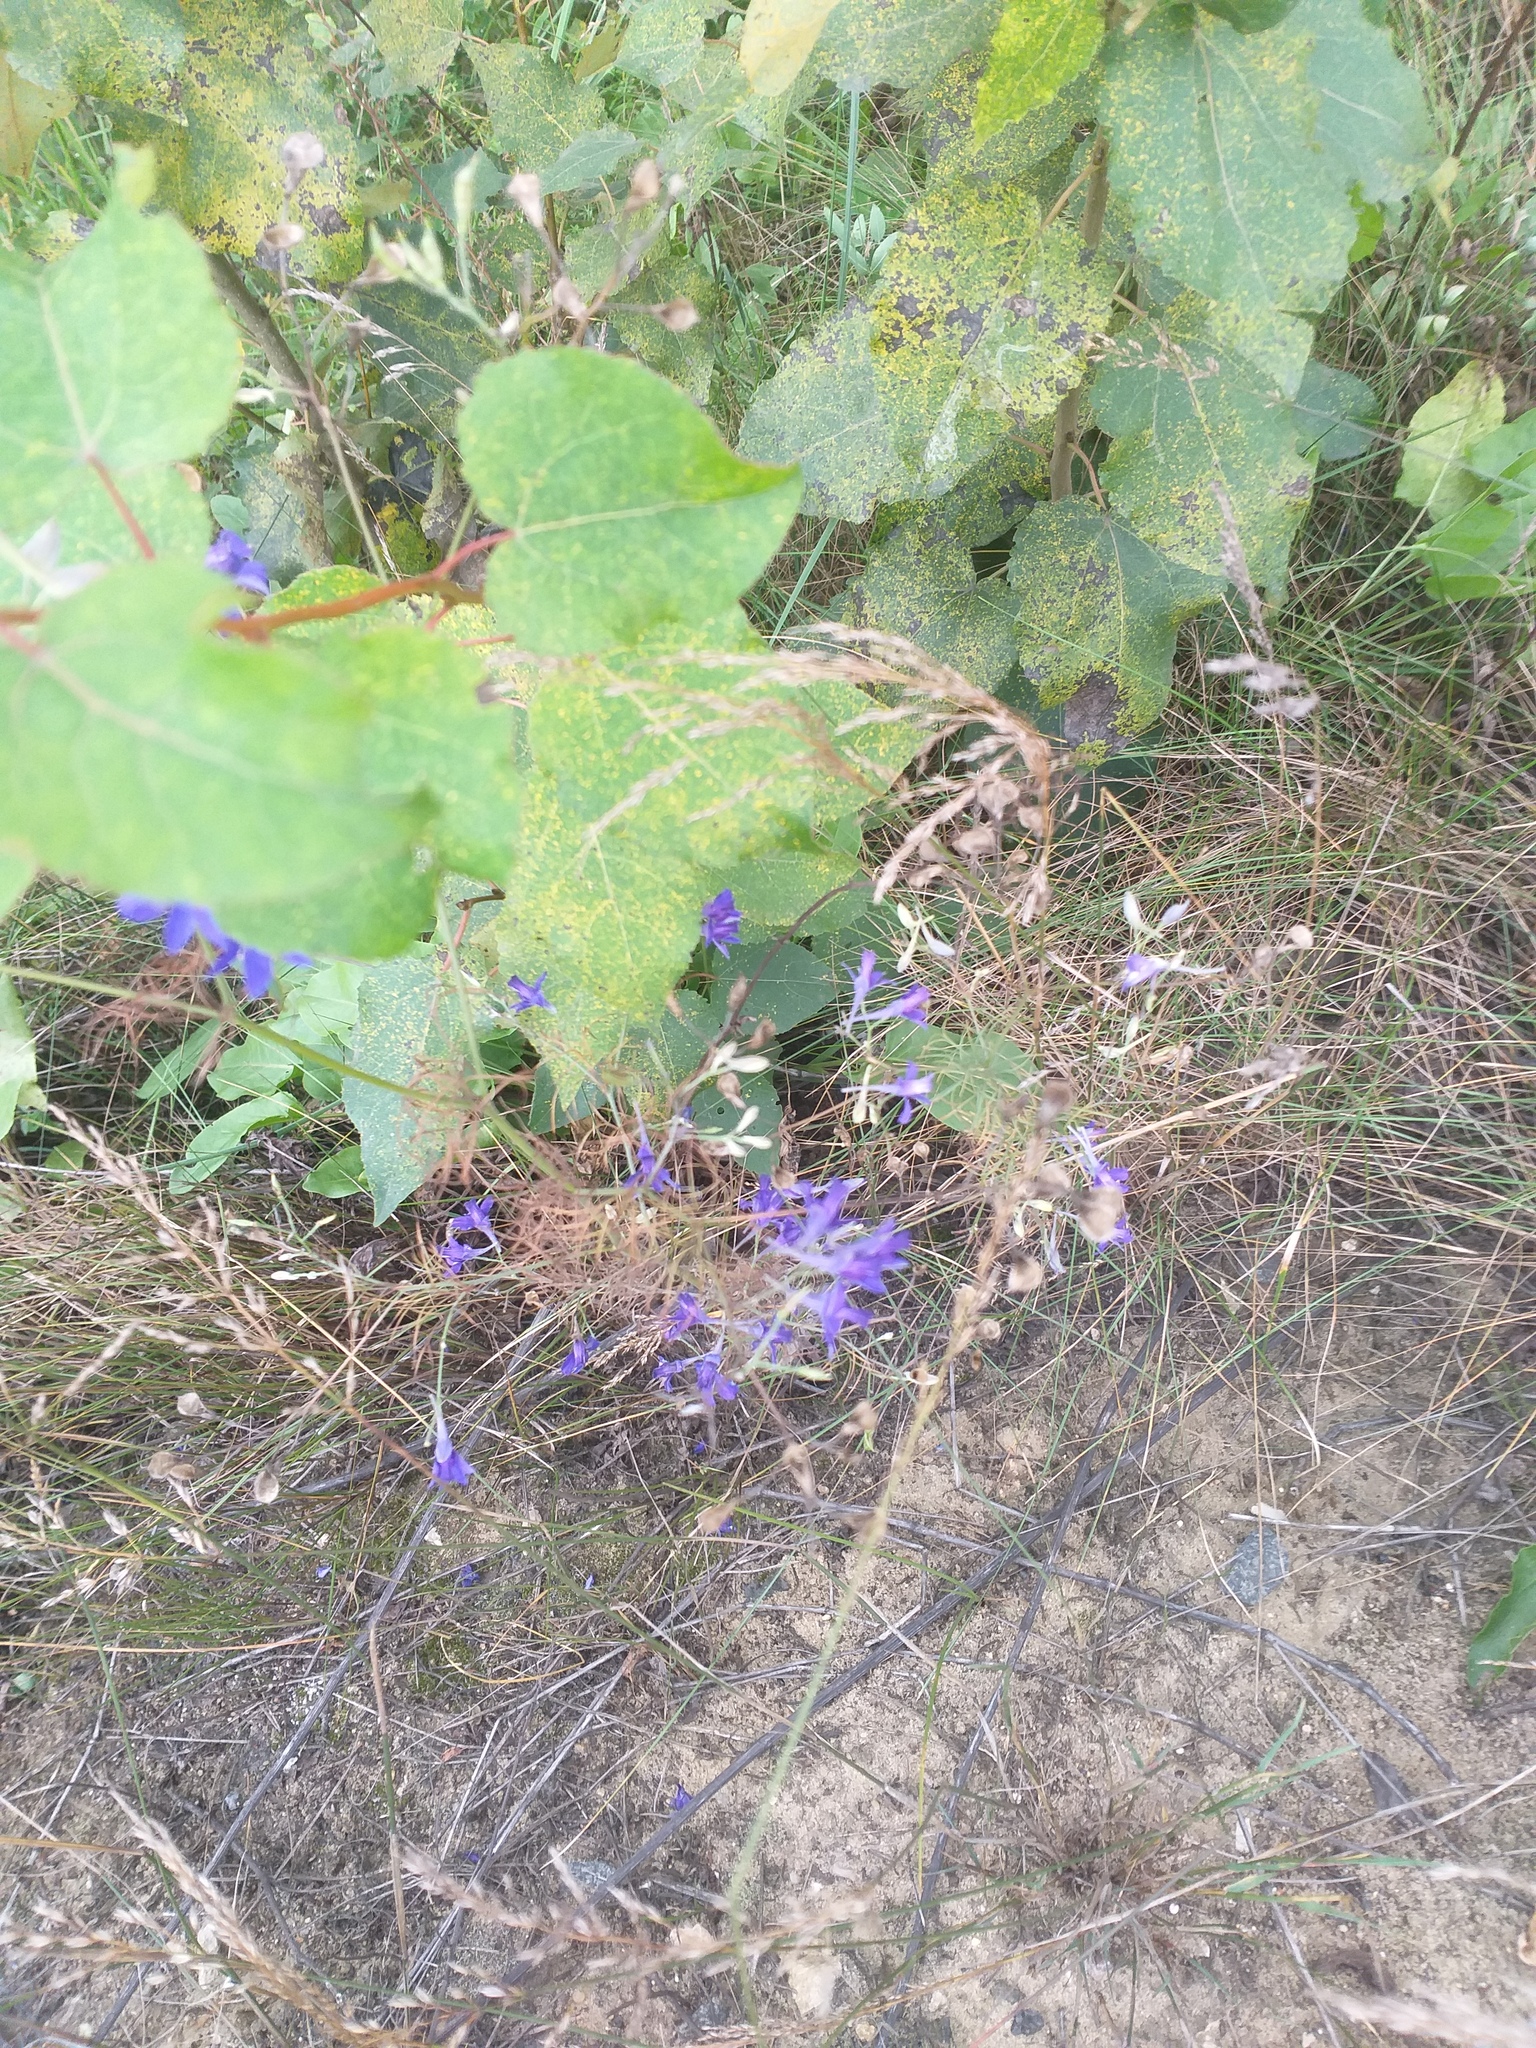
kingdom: Plantae
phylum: Tracheophyta
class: Magnoliopsida
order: Ranunculales
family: Ranunculaceae
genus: Delphinium
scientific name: Delphinium consolida
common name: Branching larkspur
